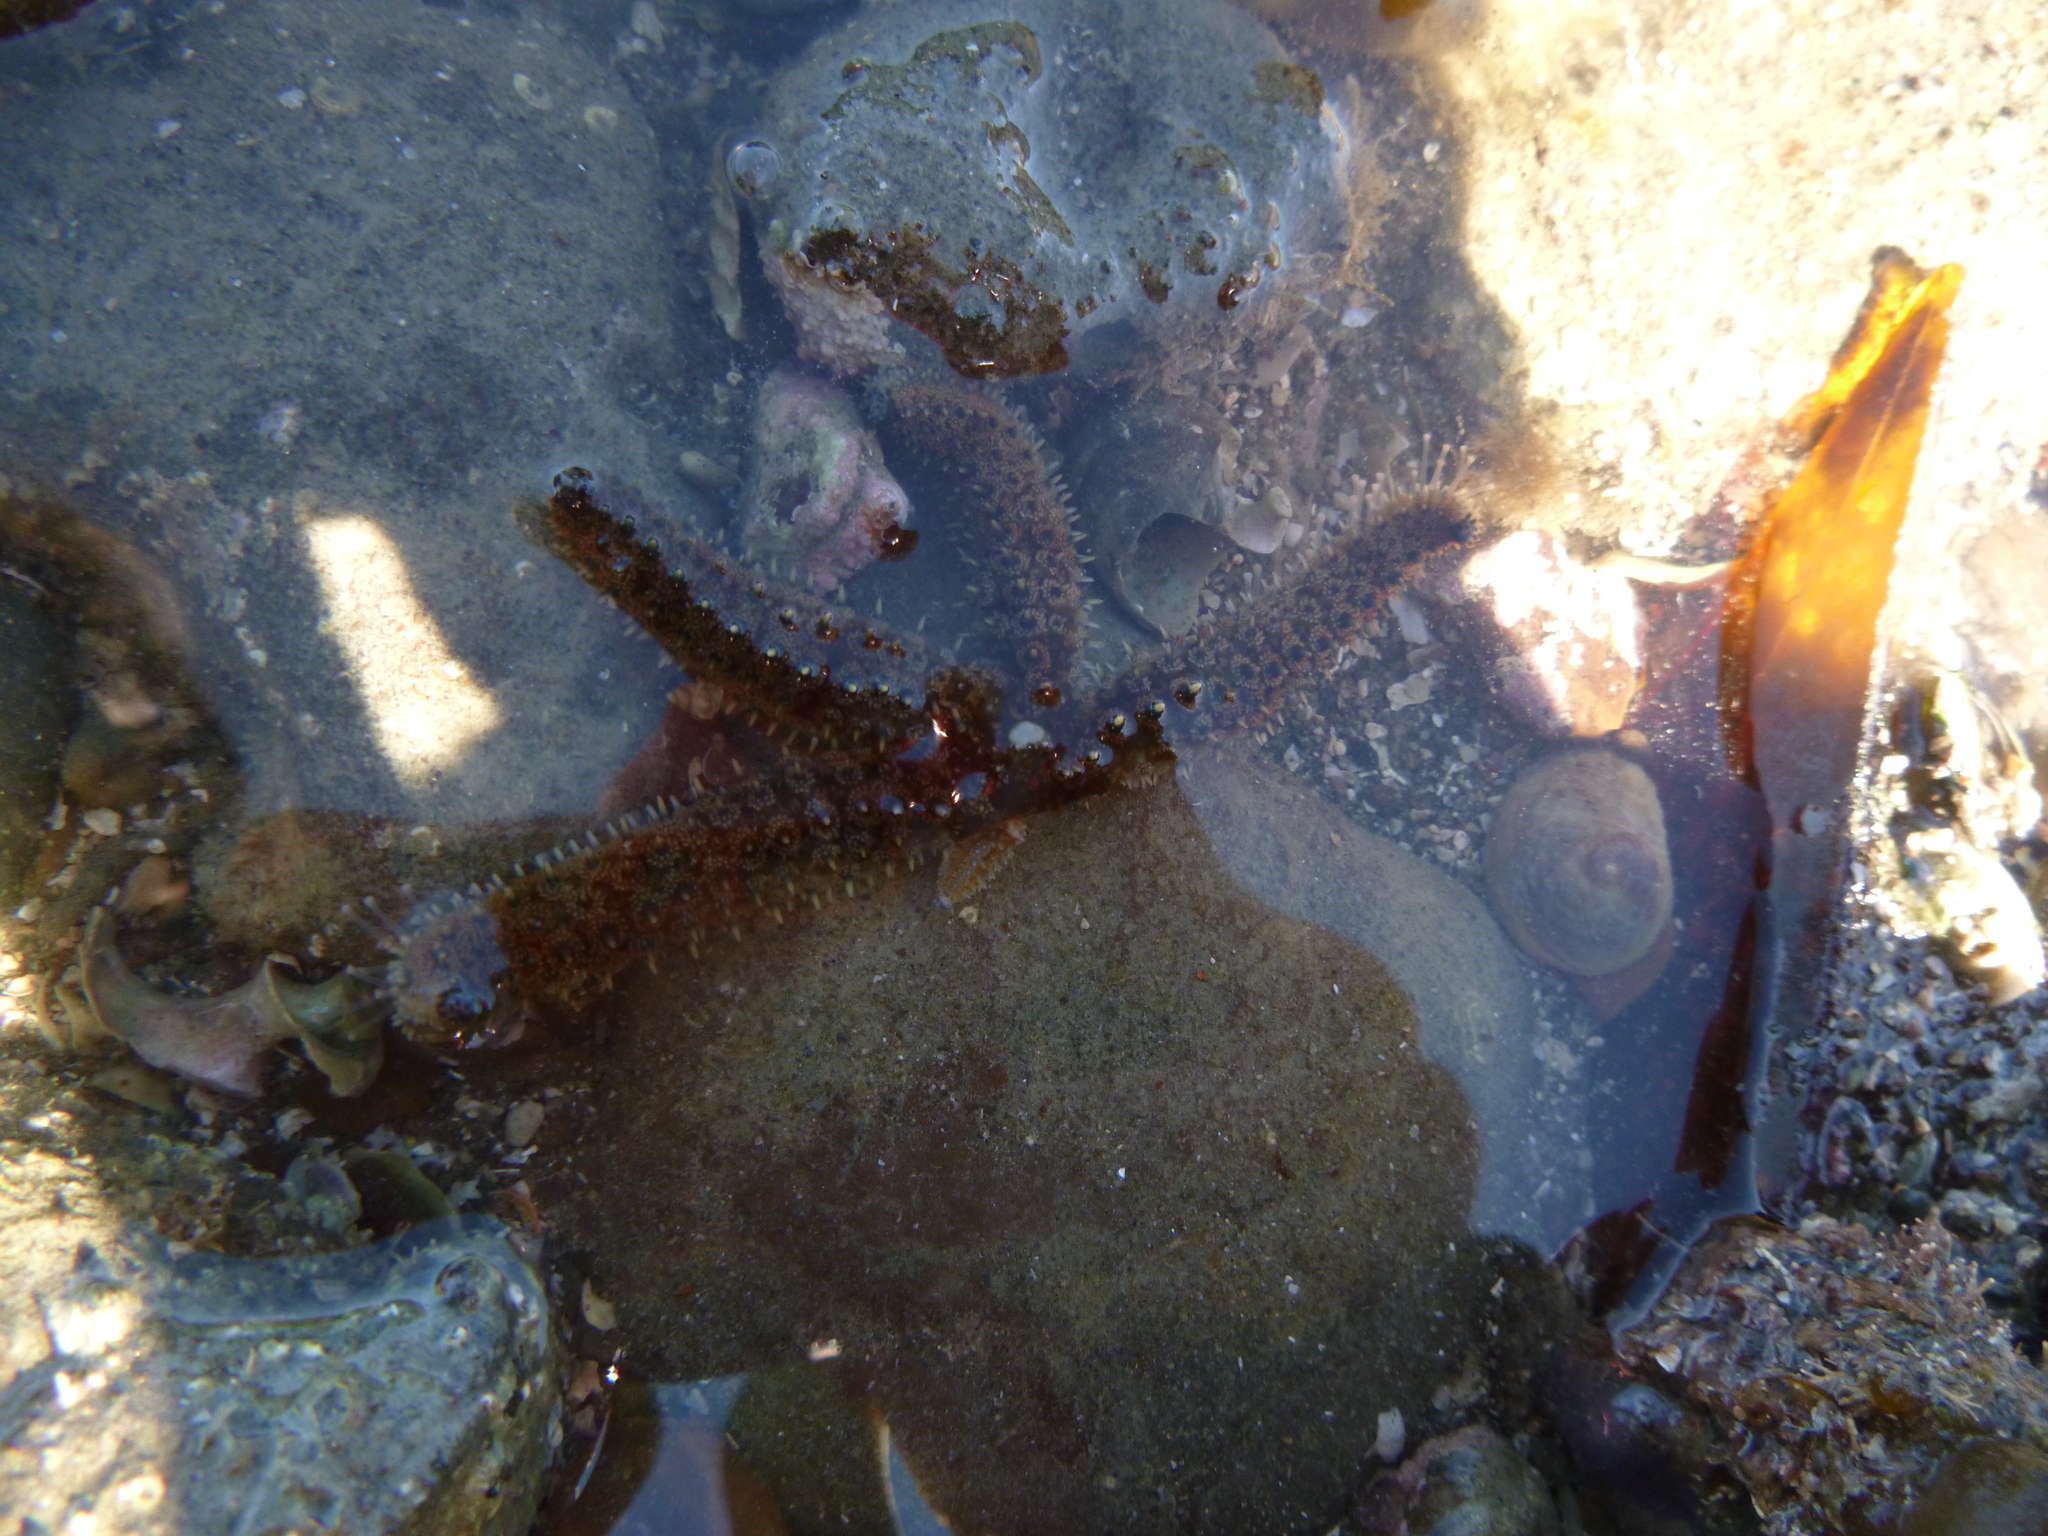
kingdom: Animalia
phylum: Mollusca
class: Gastropoda
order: Littorinimorpha
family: Calyptraeidae
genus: Sigapatella
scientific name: Sigapatella novaezelandiae
